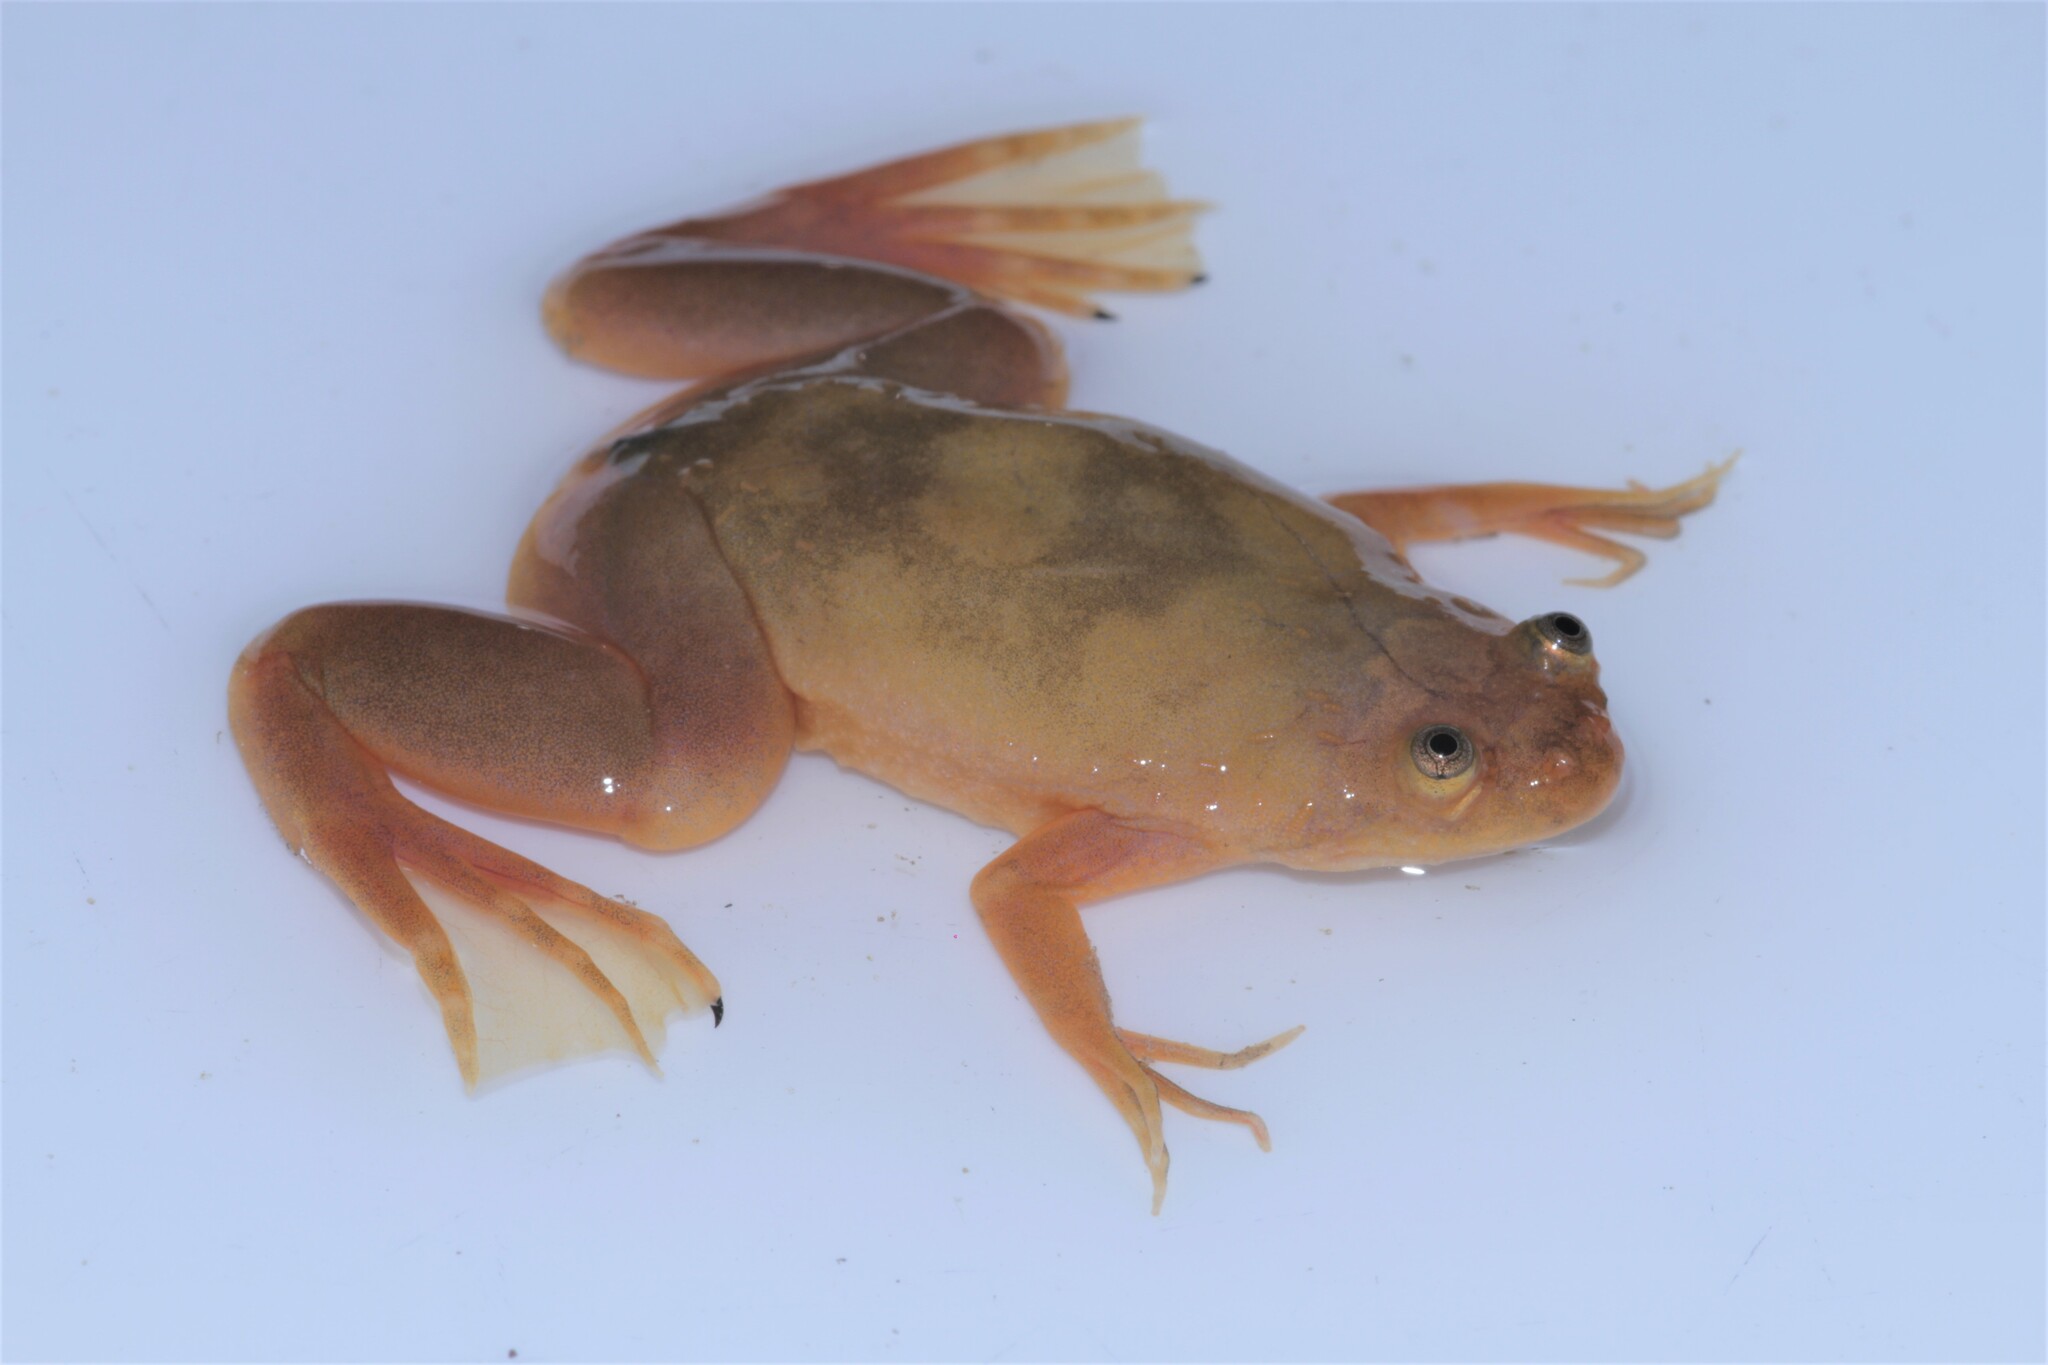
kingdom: Animalia
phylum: Chordata
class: Amphibia
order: Anura
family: Pipidae
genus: Xenopus
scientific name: Xenopus andrei
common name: Andre's clawed frog
